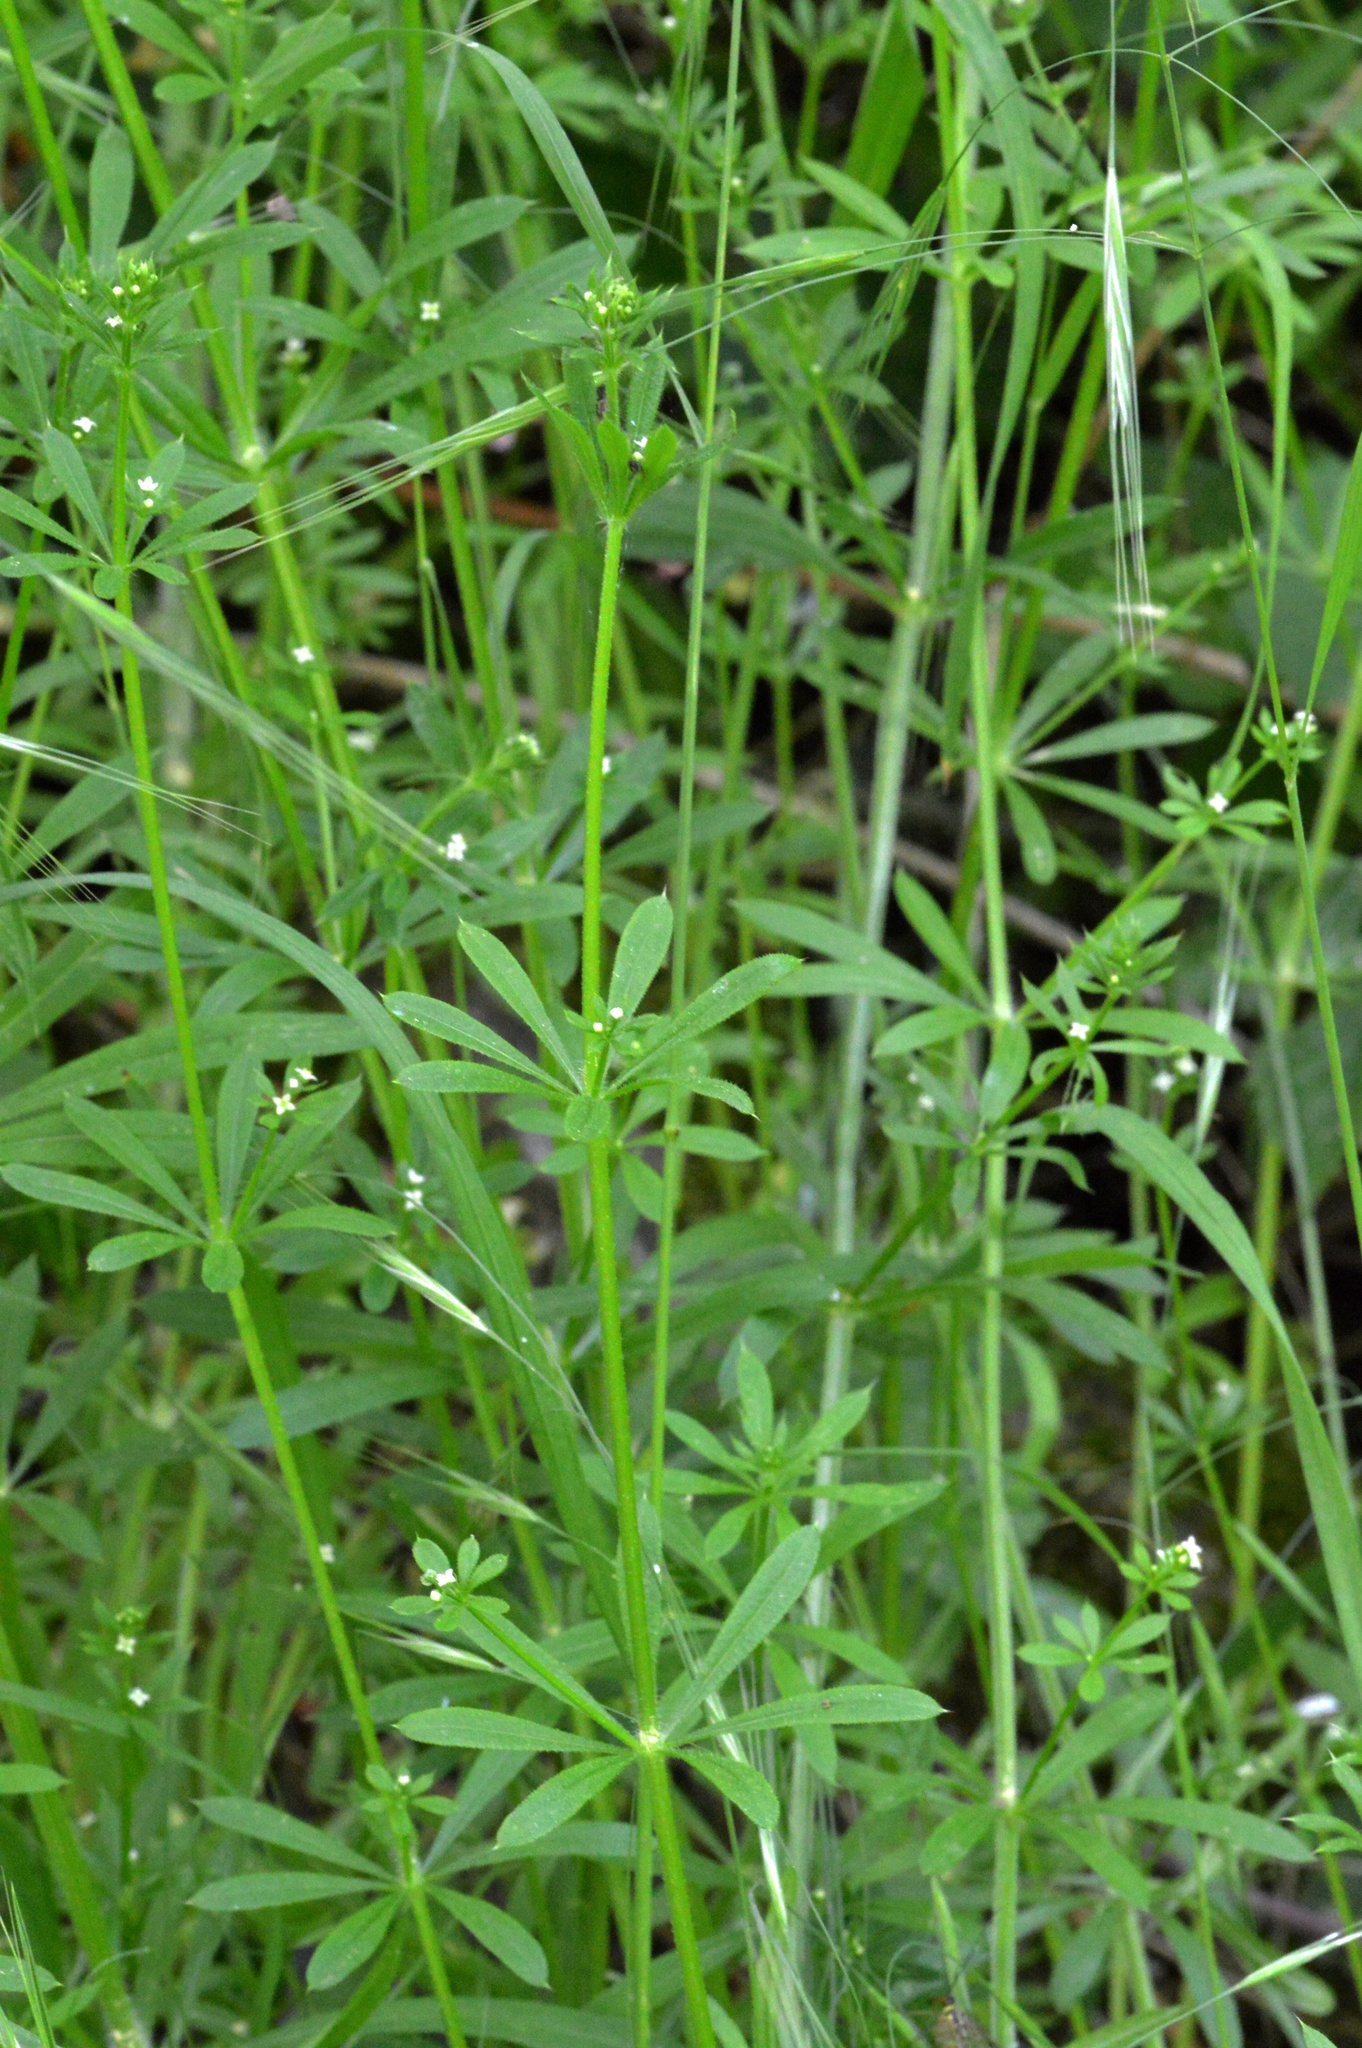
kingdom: Plantae
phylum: Tracheophyta
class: Magnoliopsida
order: Gentianales
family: Rubiaceae
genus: Galium
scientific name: Galium aparine
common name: Cleavers
